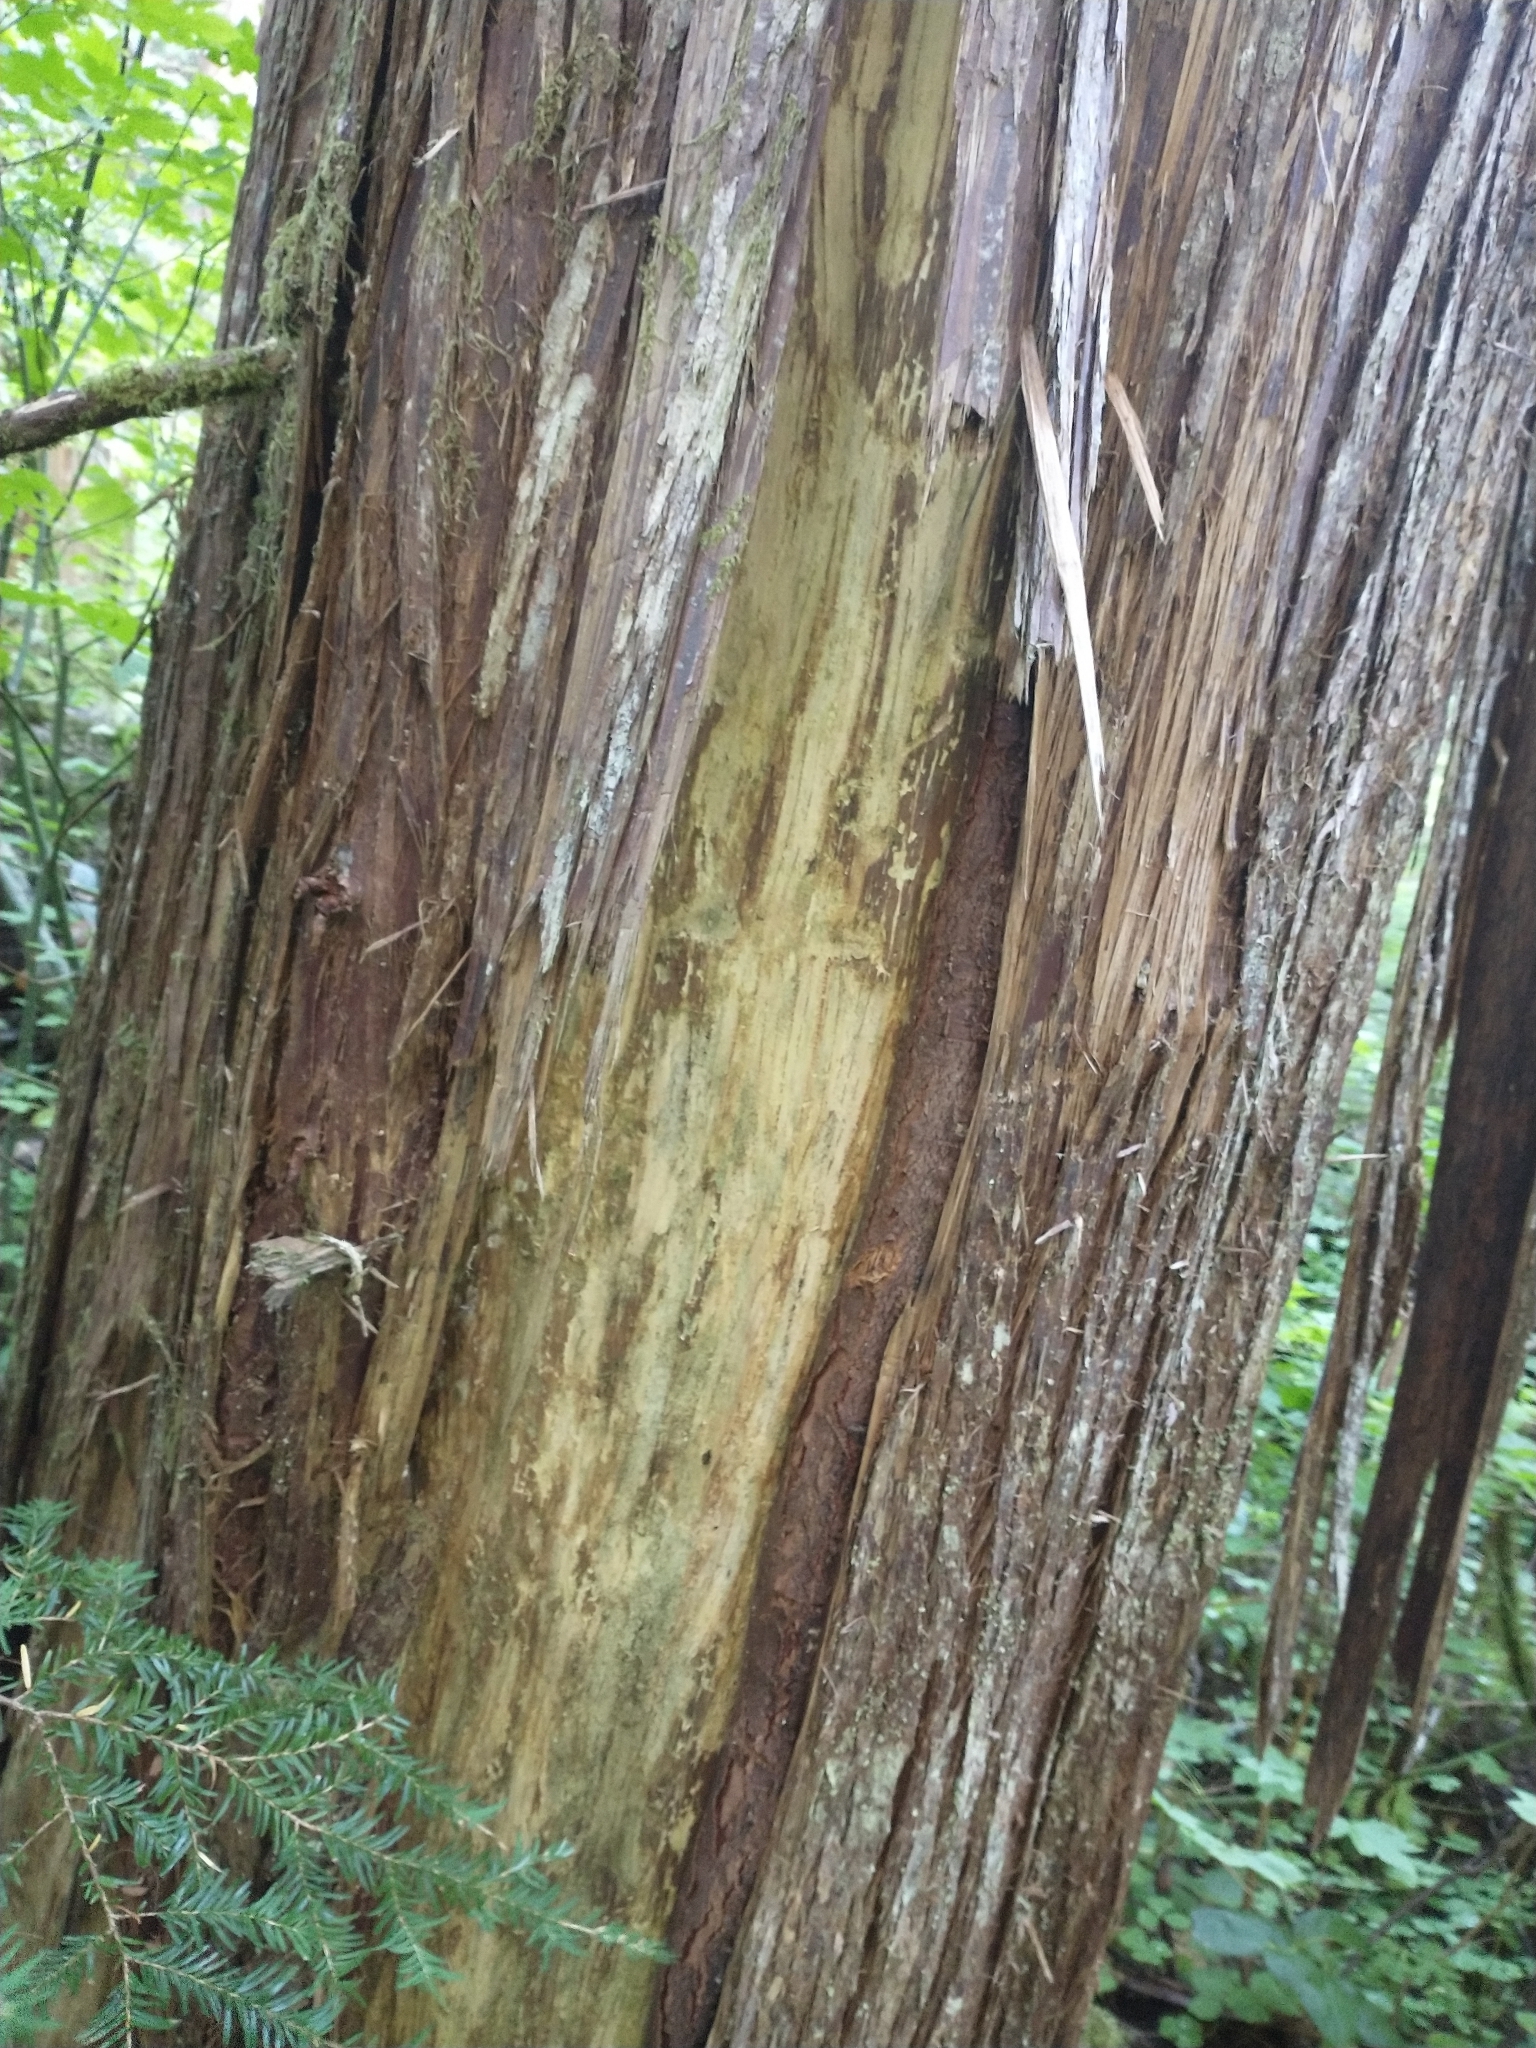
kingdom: Plantae
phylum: Tracheophyta
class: Pinopsida
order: Pinales
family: Cupressaceae
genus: Thuja
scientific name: Thuja plicata
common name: Western red-cedar
